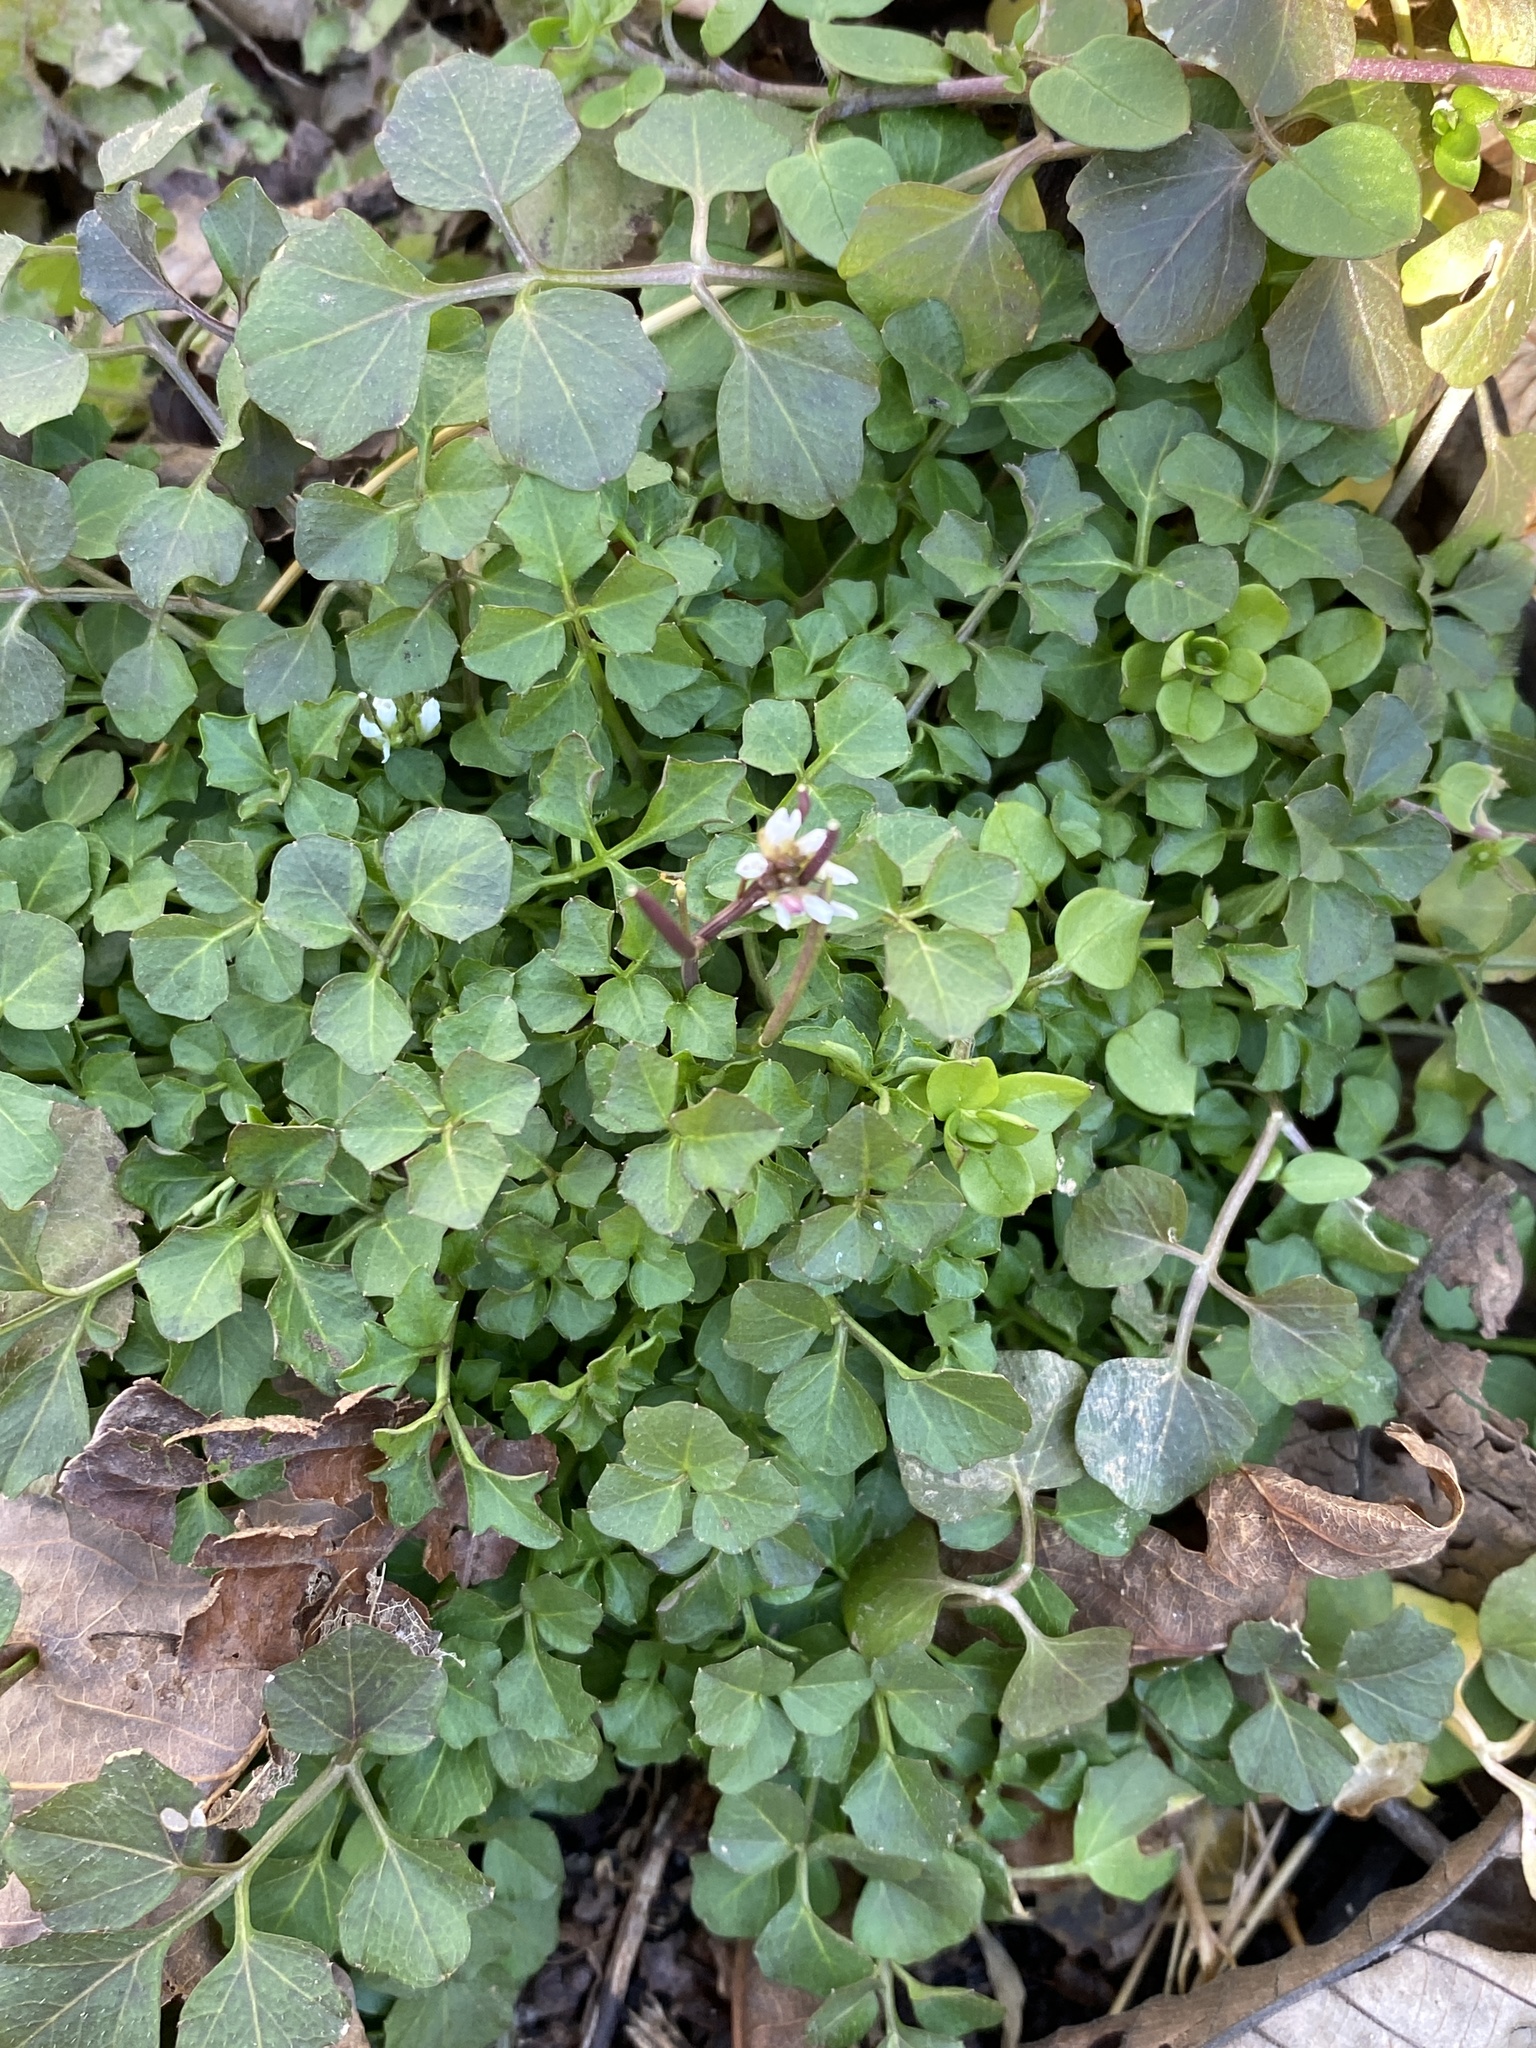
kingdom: Plantae
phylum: Tracheophyta
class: Magnoliopsida
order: Brassicales
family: Brassicaceae
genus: Cardamine
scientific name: Cardamine hirsuta
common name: Hairy bittercress
